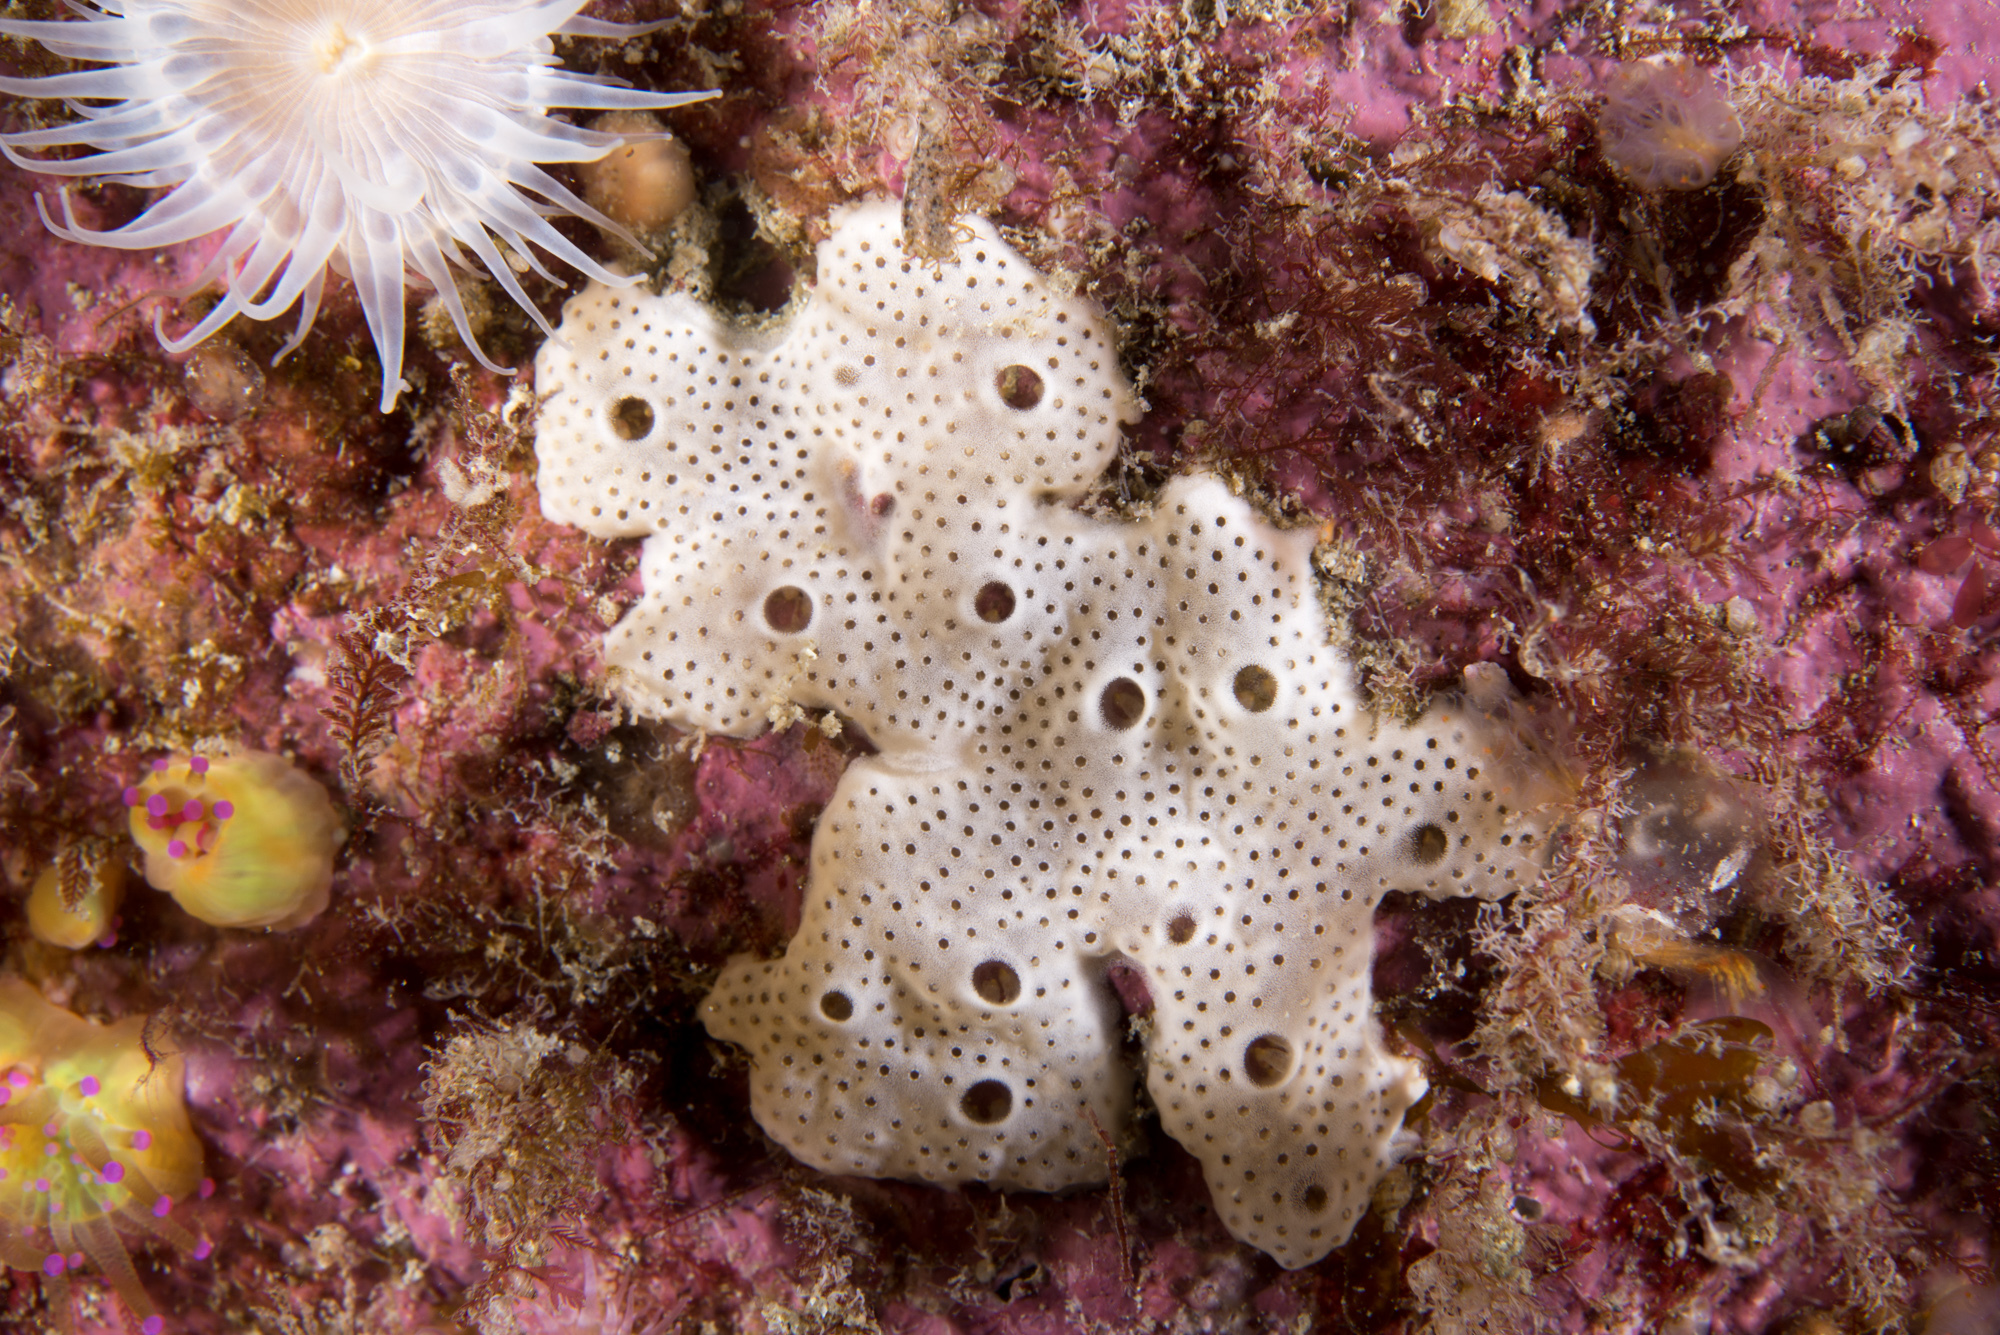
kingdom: Animalia
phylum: Chordata
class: Ascidiacea
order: Aplousobranchia
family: Didemnidae
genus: Lissoclinum
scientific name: Lissoclinum perforatum
